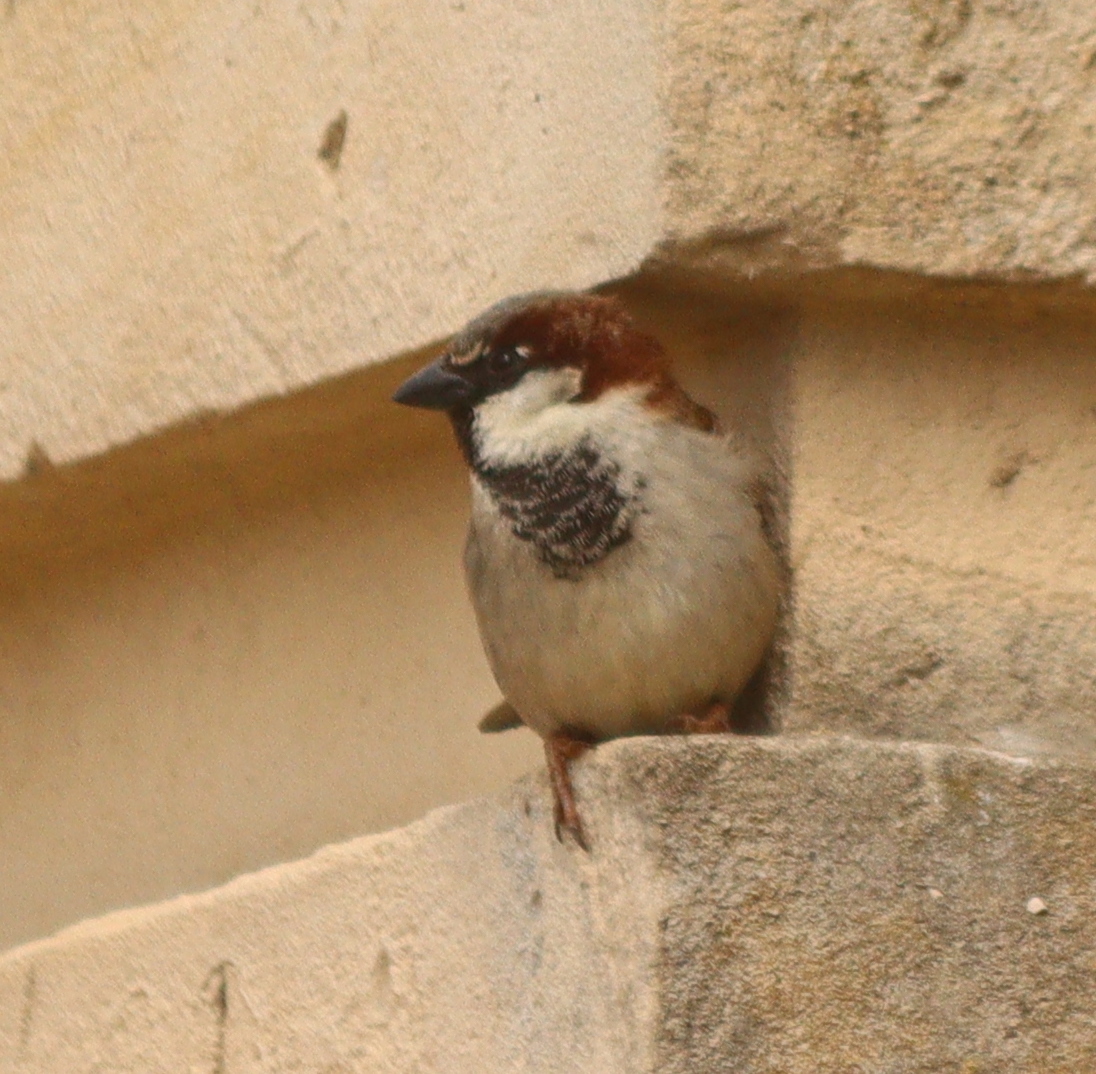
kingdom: Animalia
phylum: Chordata
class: Aves
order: Passeriformes
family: Passeridae
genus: Passer
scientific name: Passer domesticus
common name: House sparrow
